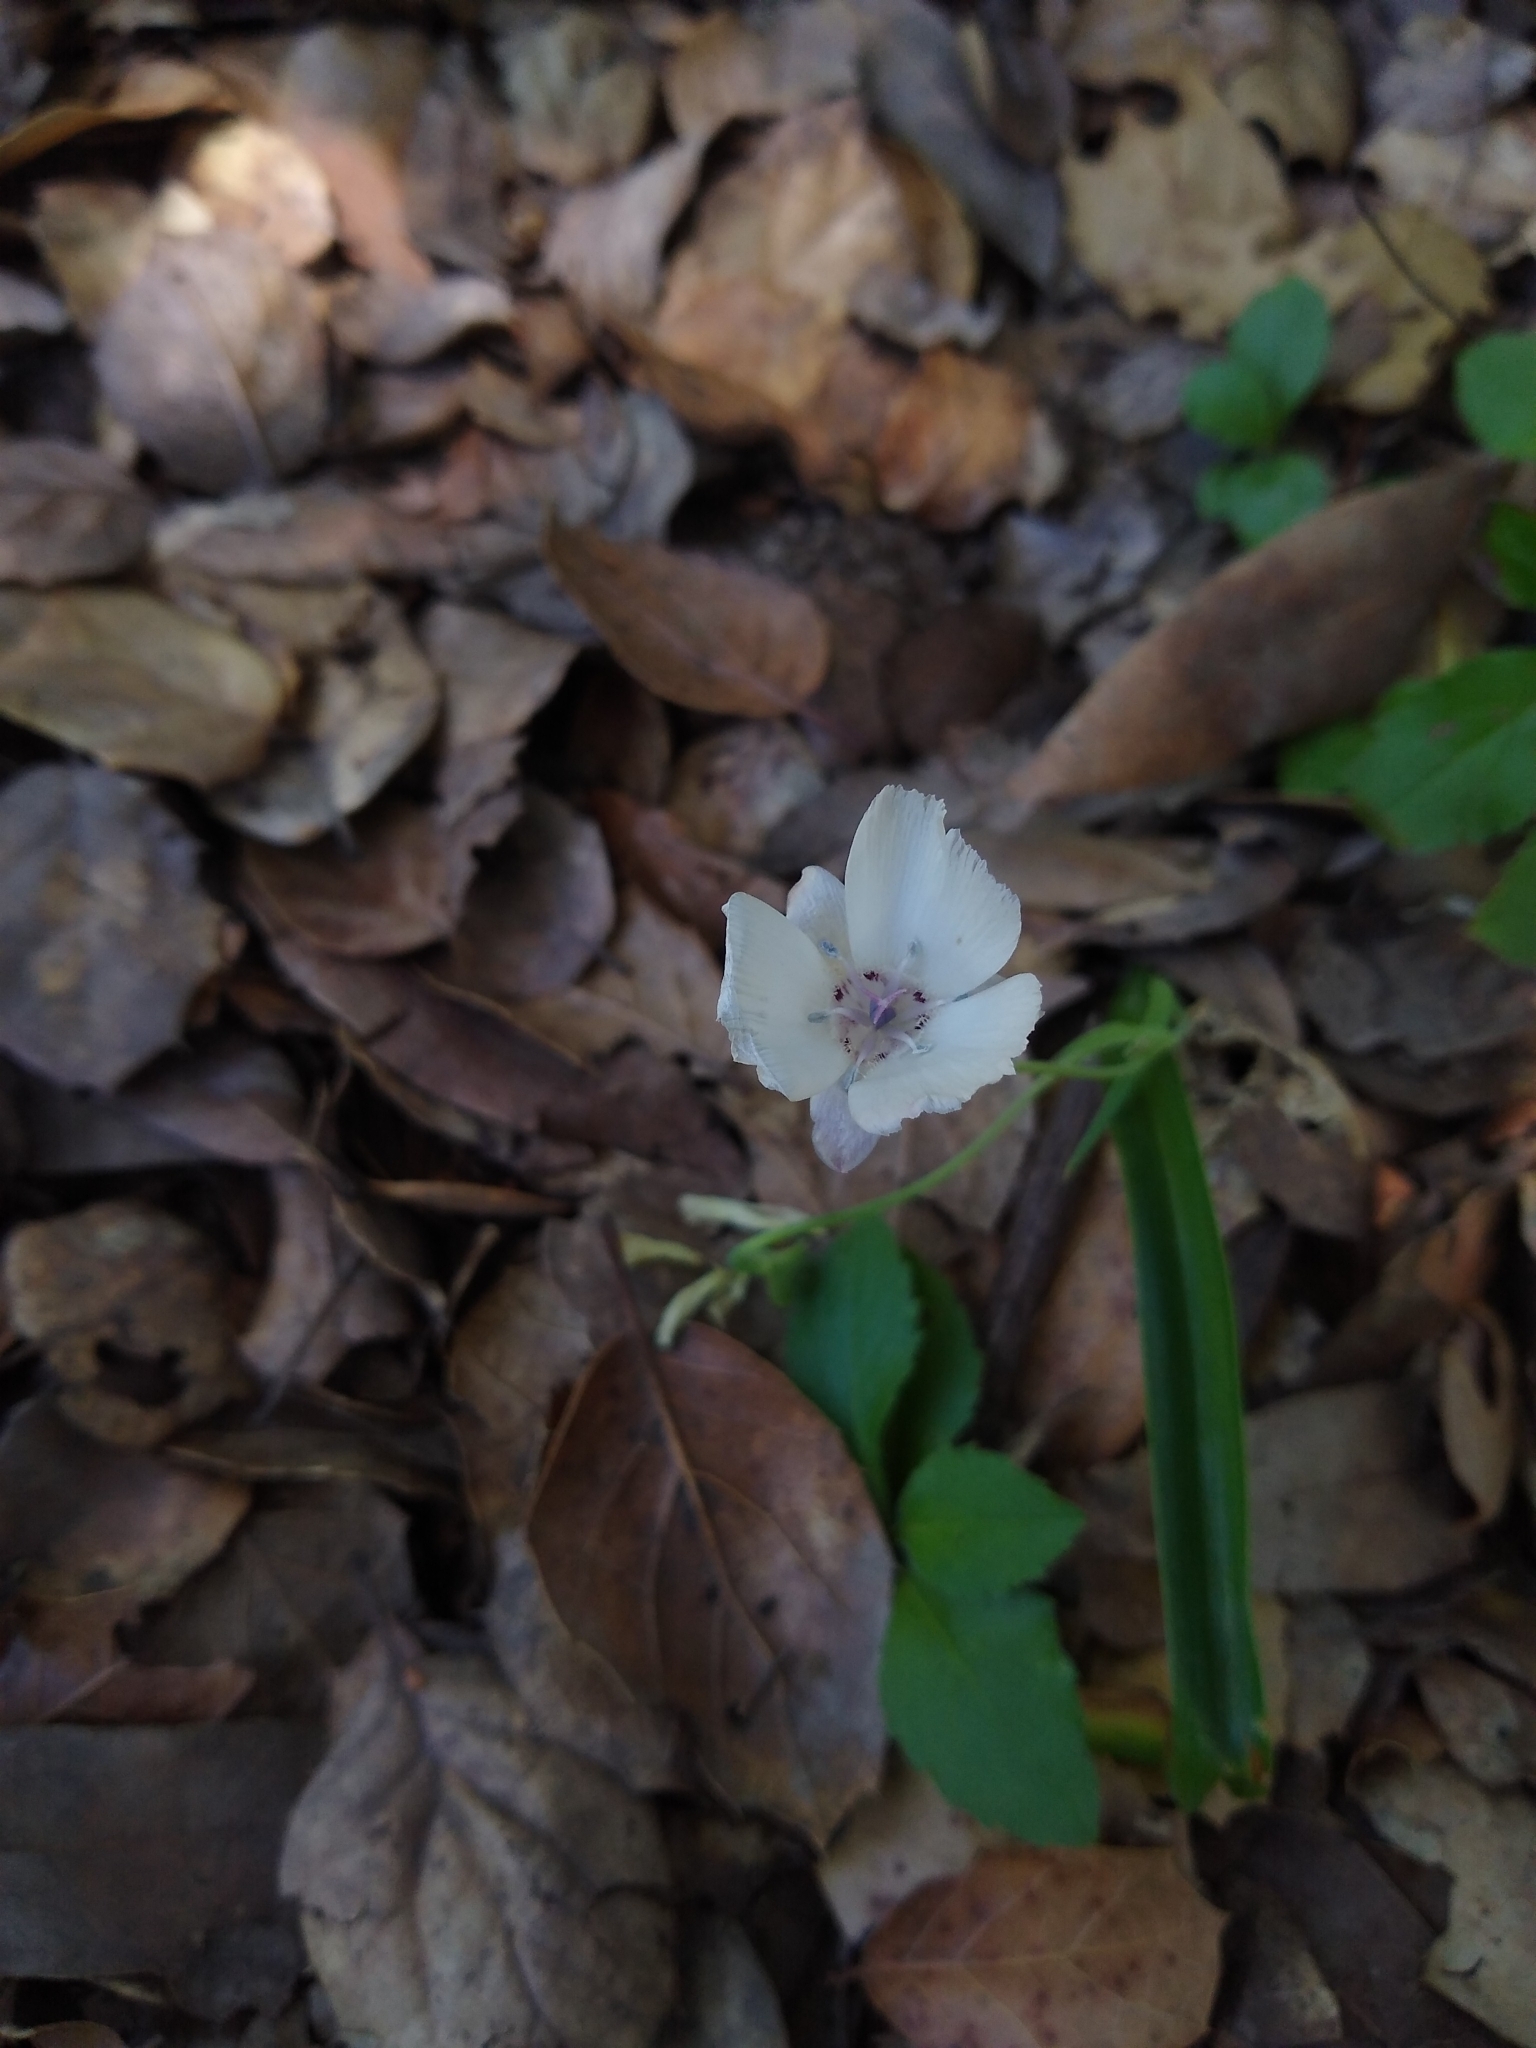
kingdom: Plantae
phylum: Tracheophyta
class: Liliopsida
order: Liliales
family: Liliaceae
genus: Calochortus
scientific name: Calochortus umbellatus
